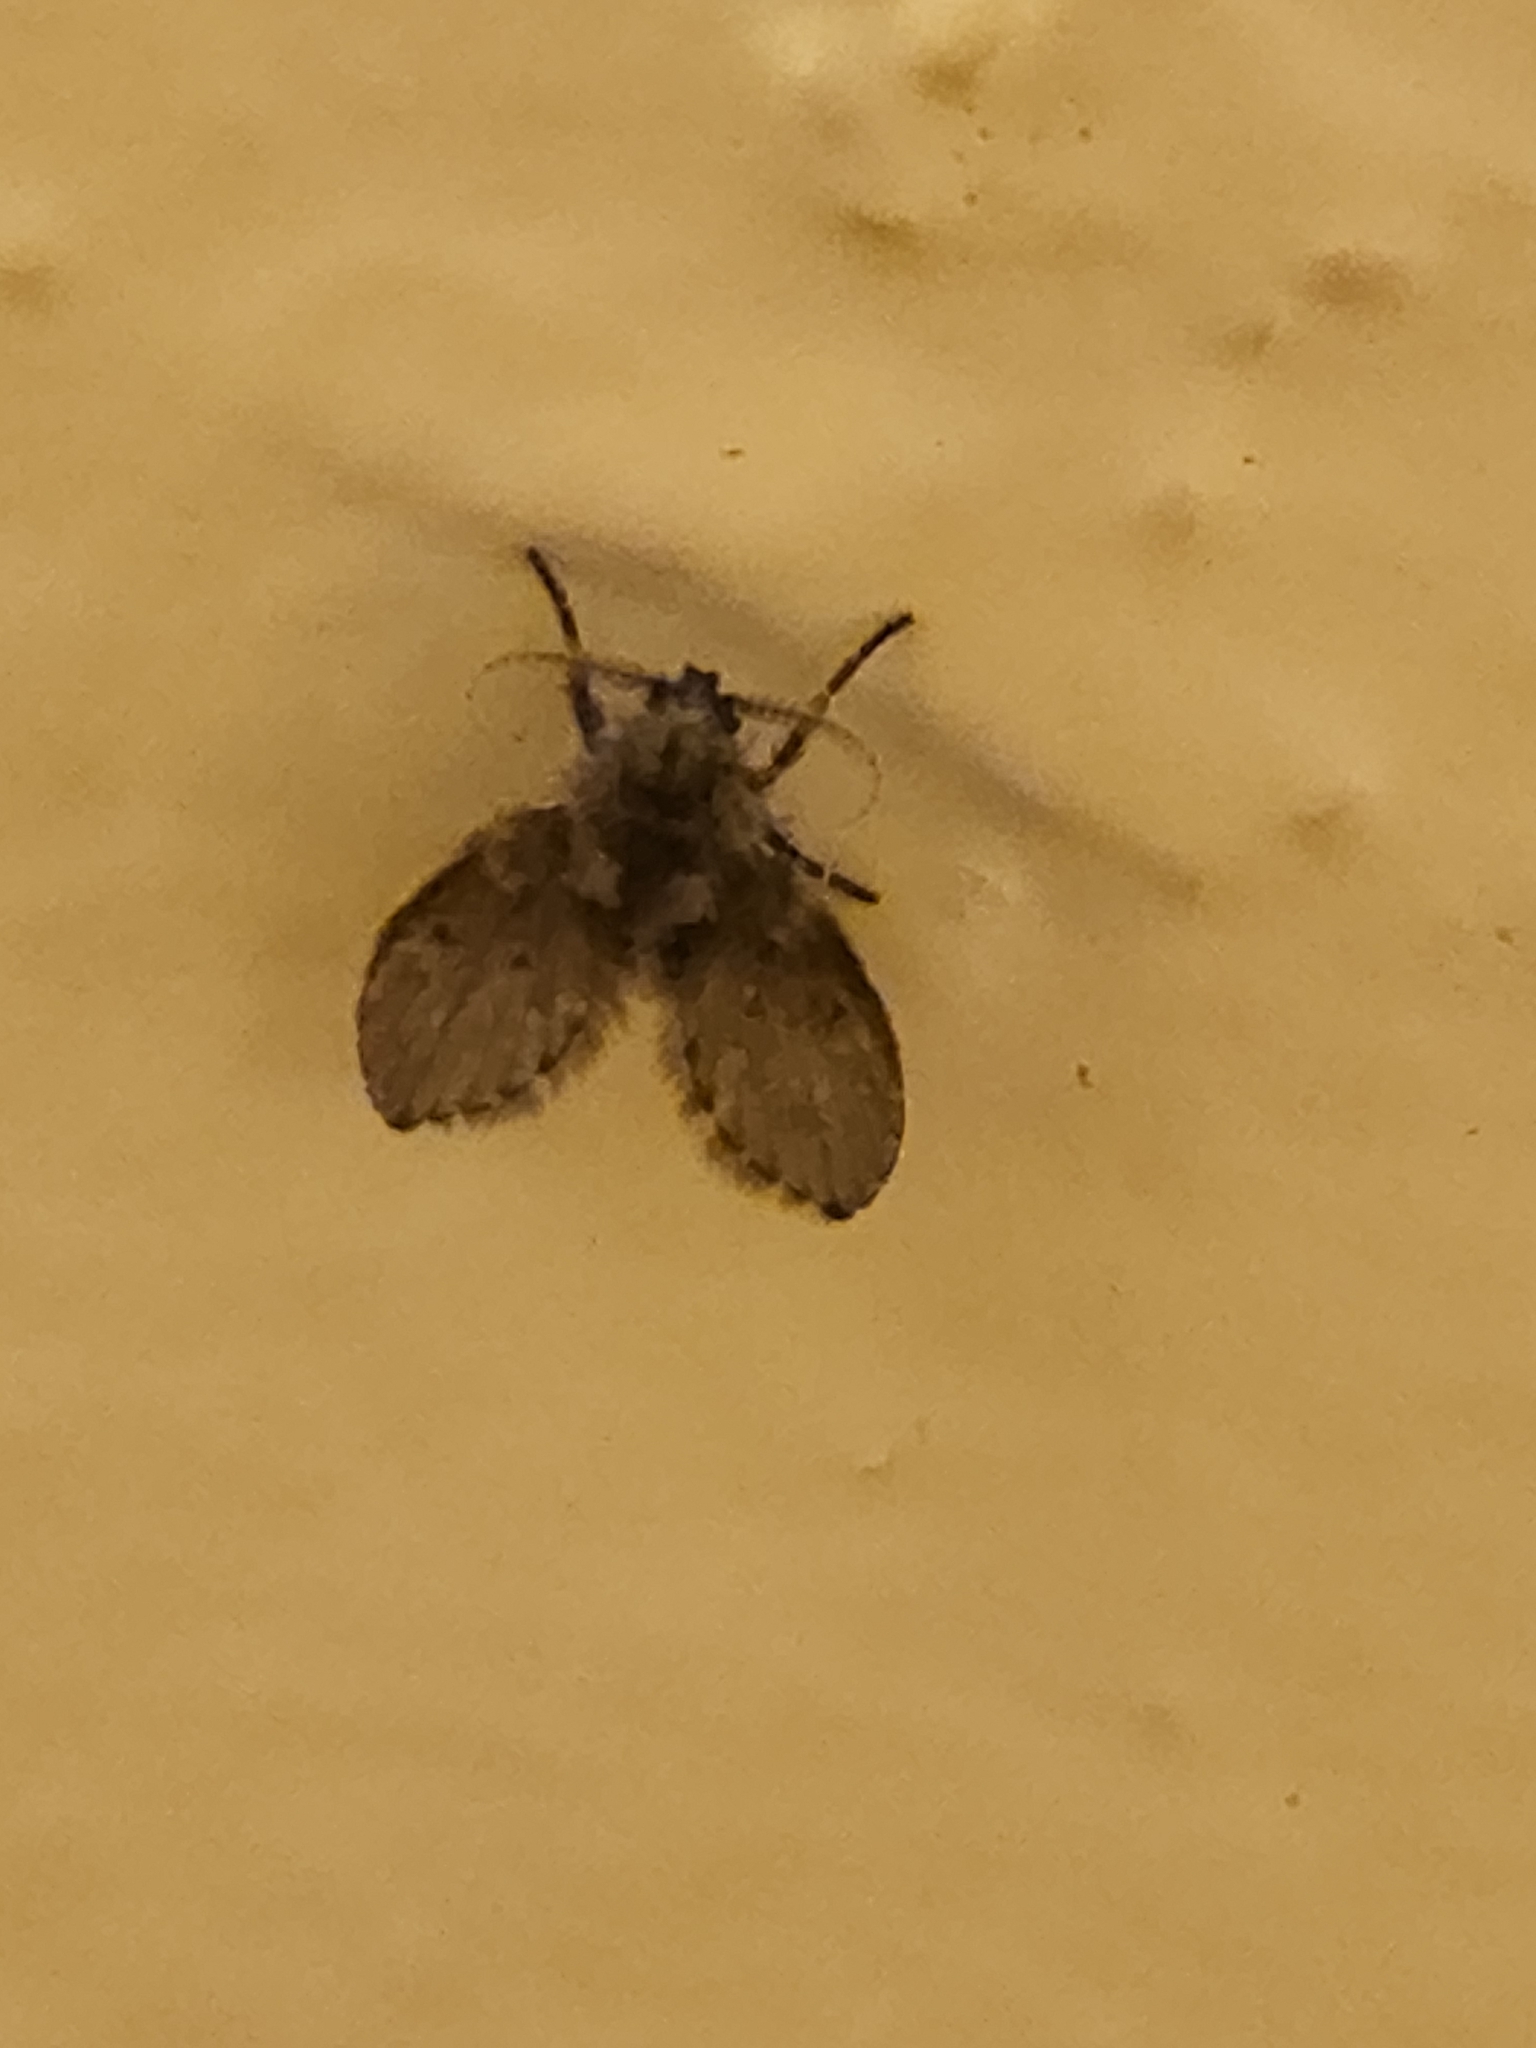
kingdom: Animalia
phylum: Arthropoda
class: Insecta
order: Diptera
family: Psychodidae
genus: Clogmia
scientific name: Clogmia albipunctatus
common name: White-spotted moth fly
